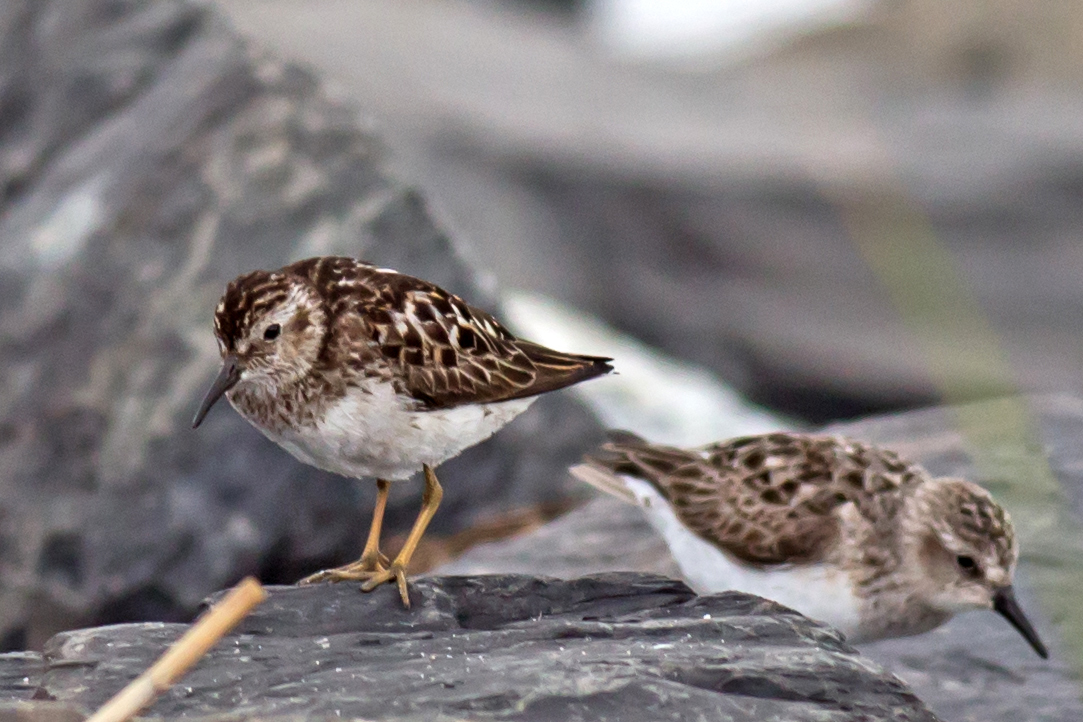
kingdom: Animalia
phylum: Chordata
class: Aves
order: Charadriiformes
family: Scolopacidae
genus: Calidris
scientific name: Calidris minutilla
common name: Least sandpiper
